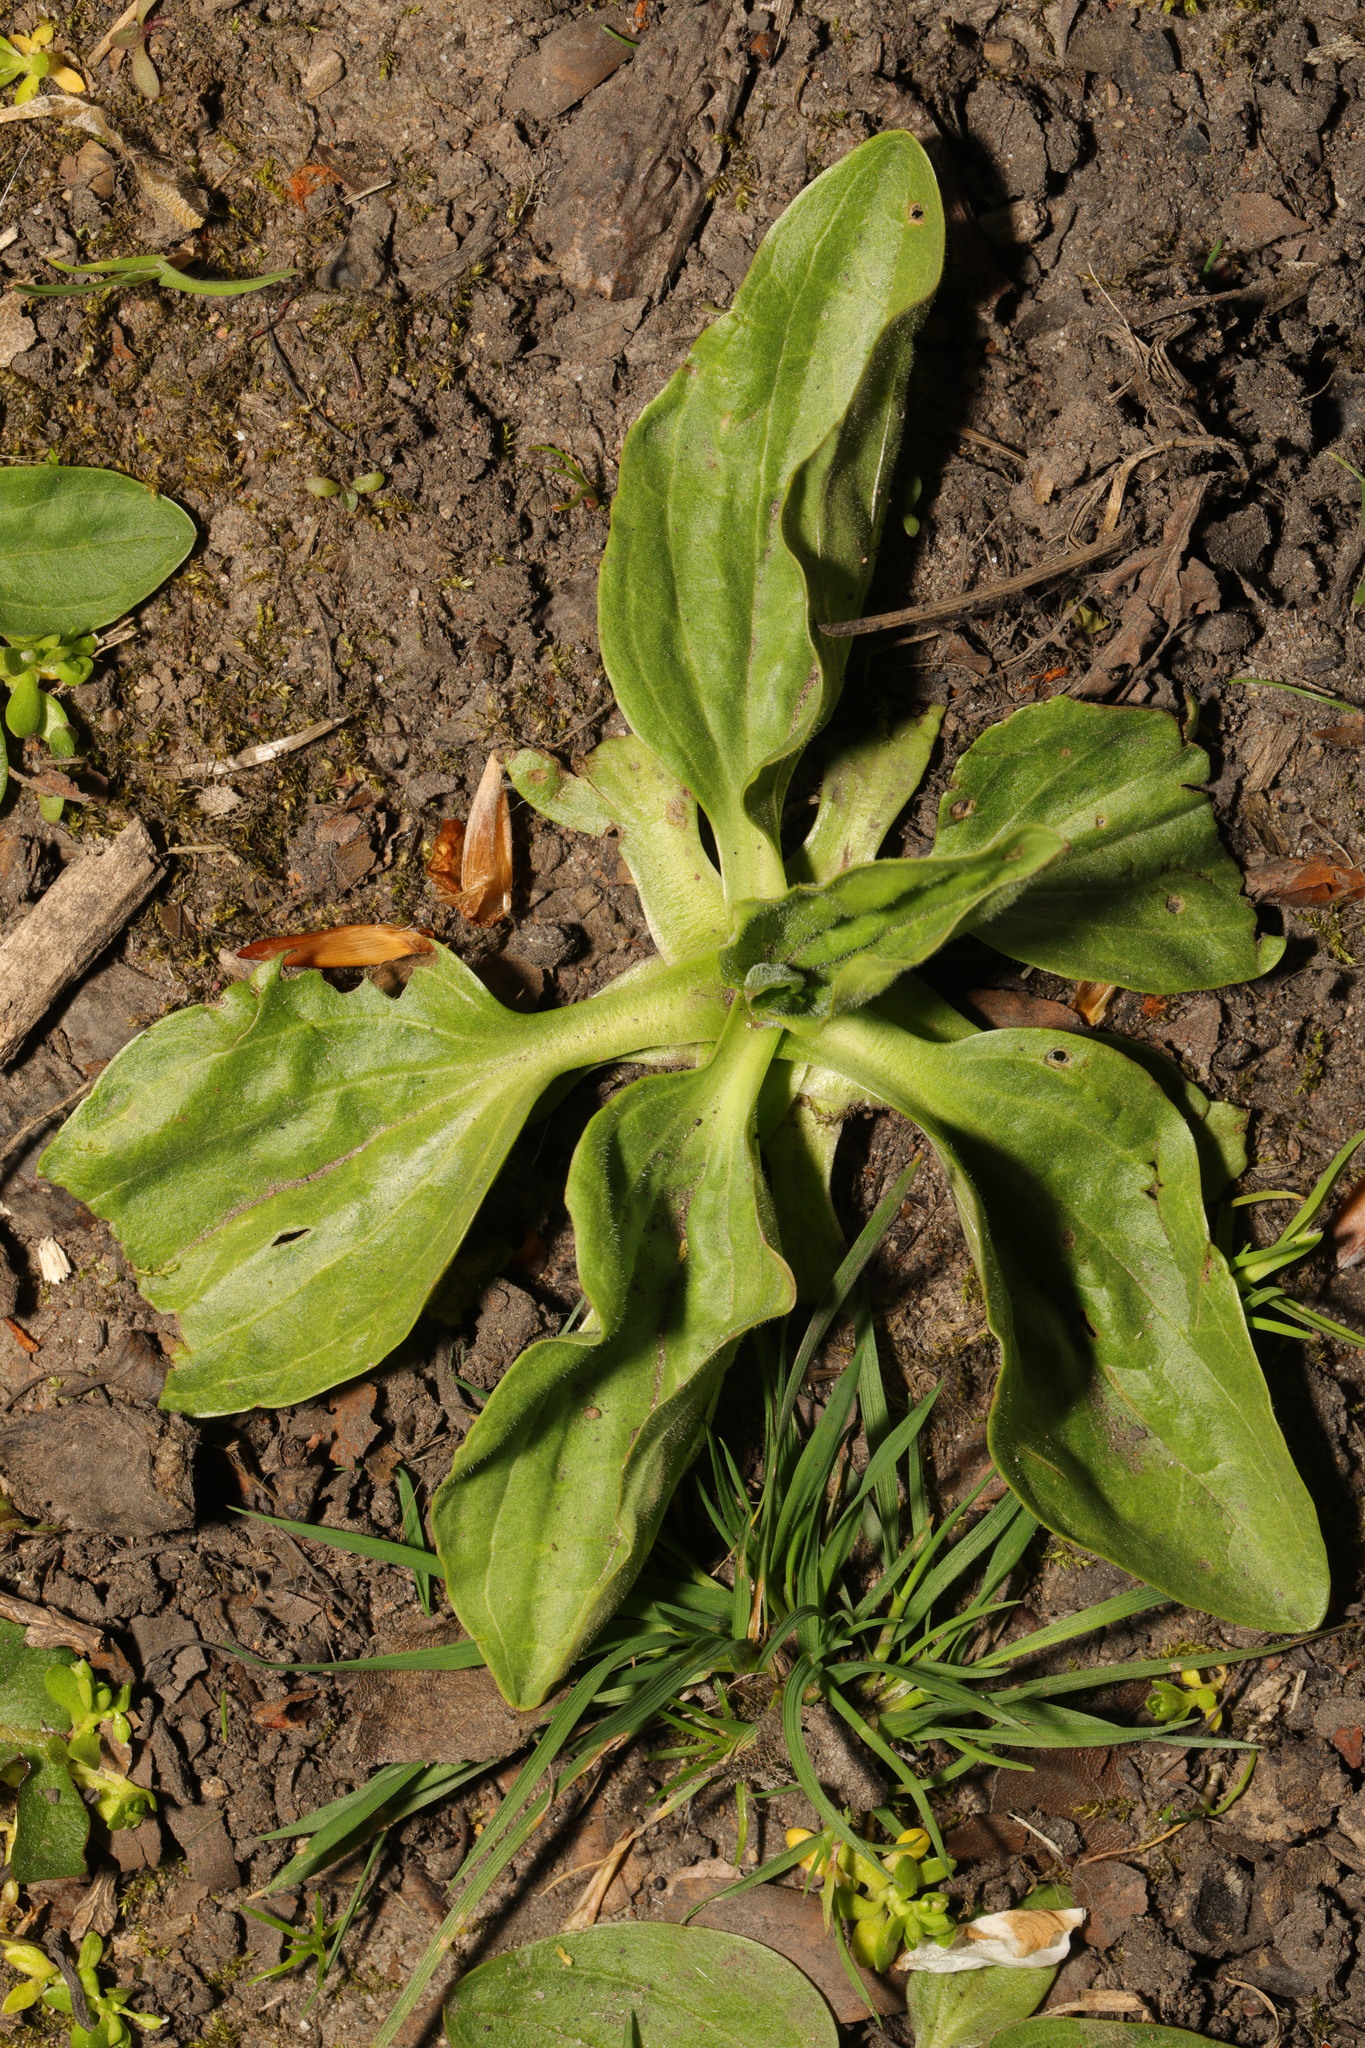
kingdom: Plantae
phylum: Tracheophyta
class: Magnoliopsida
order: Lamiales
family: Plantaginaceae
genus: Plantago
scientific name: Plantago major
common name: Common plantain
